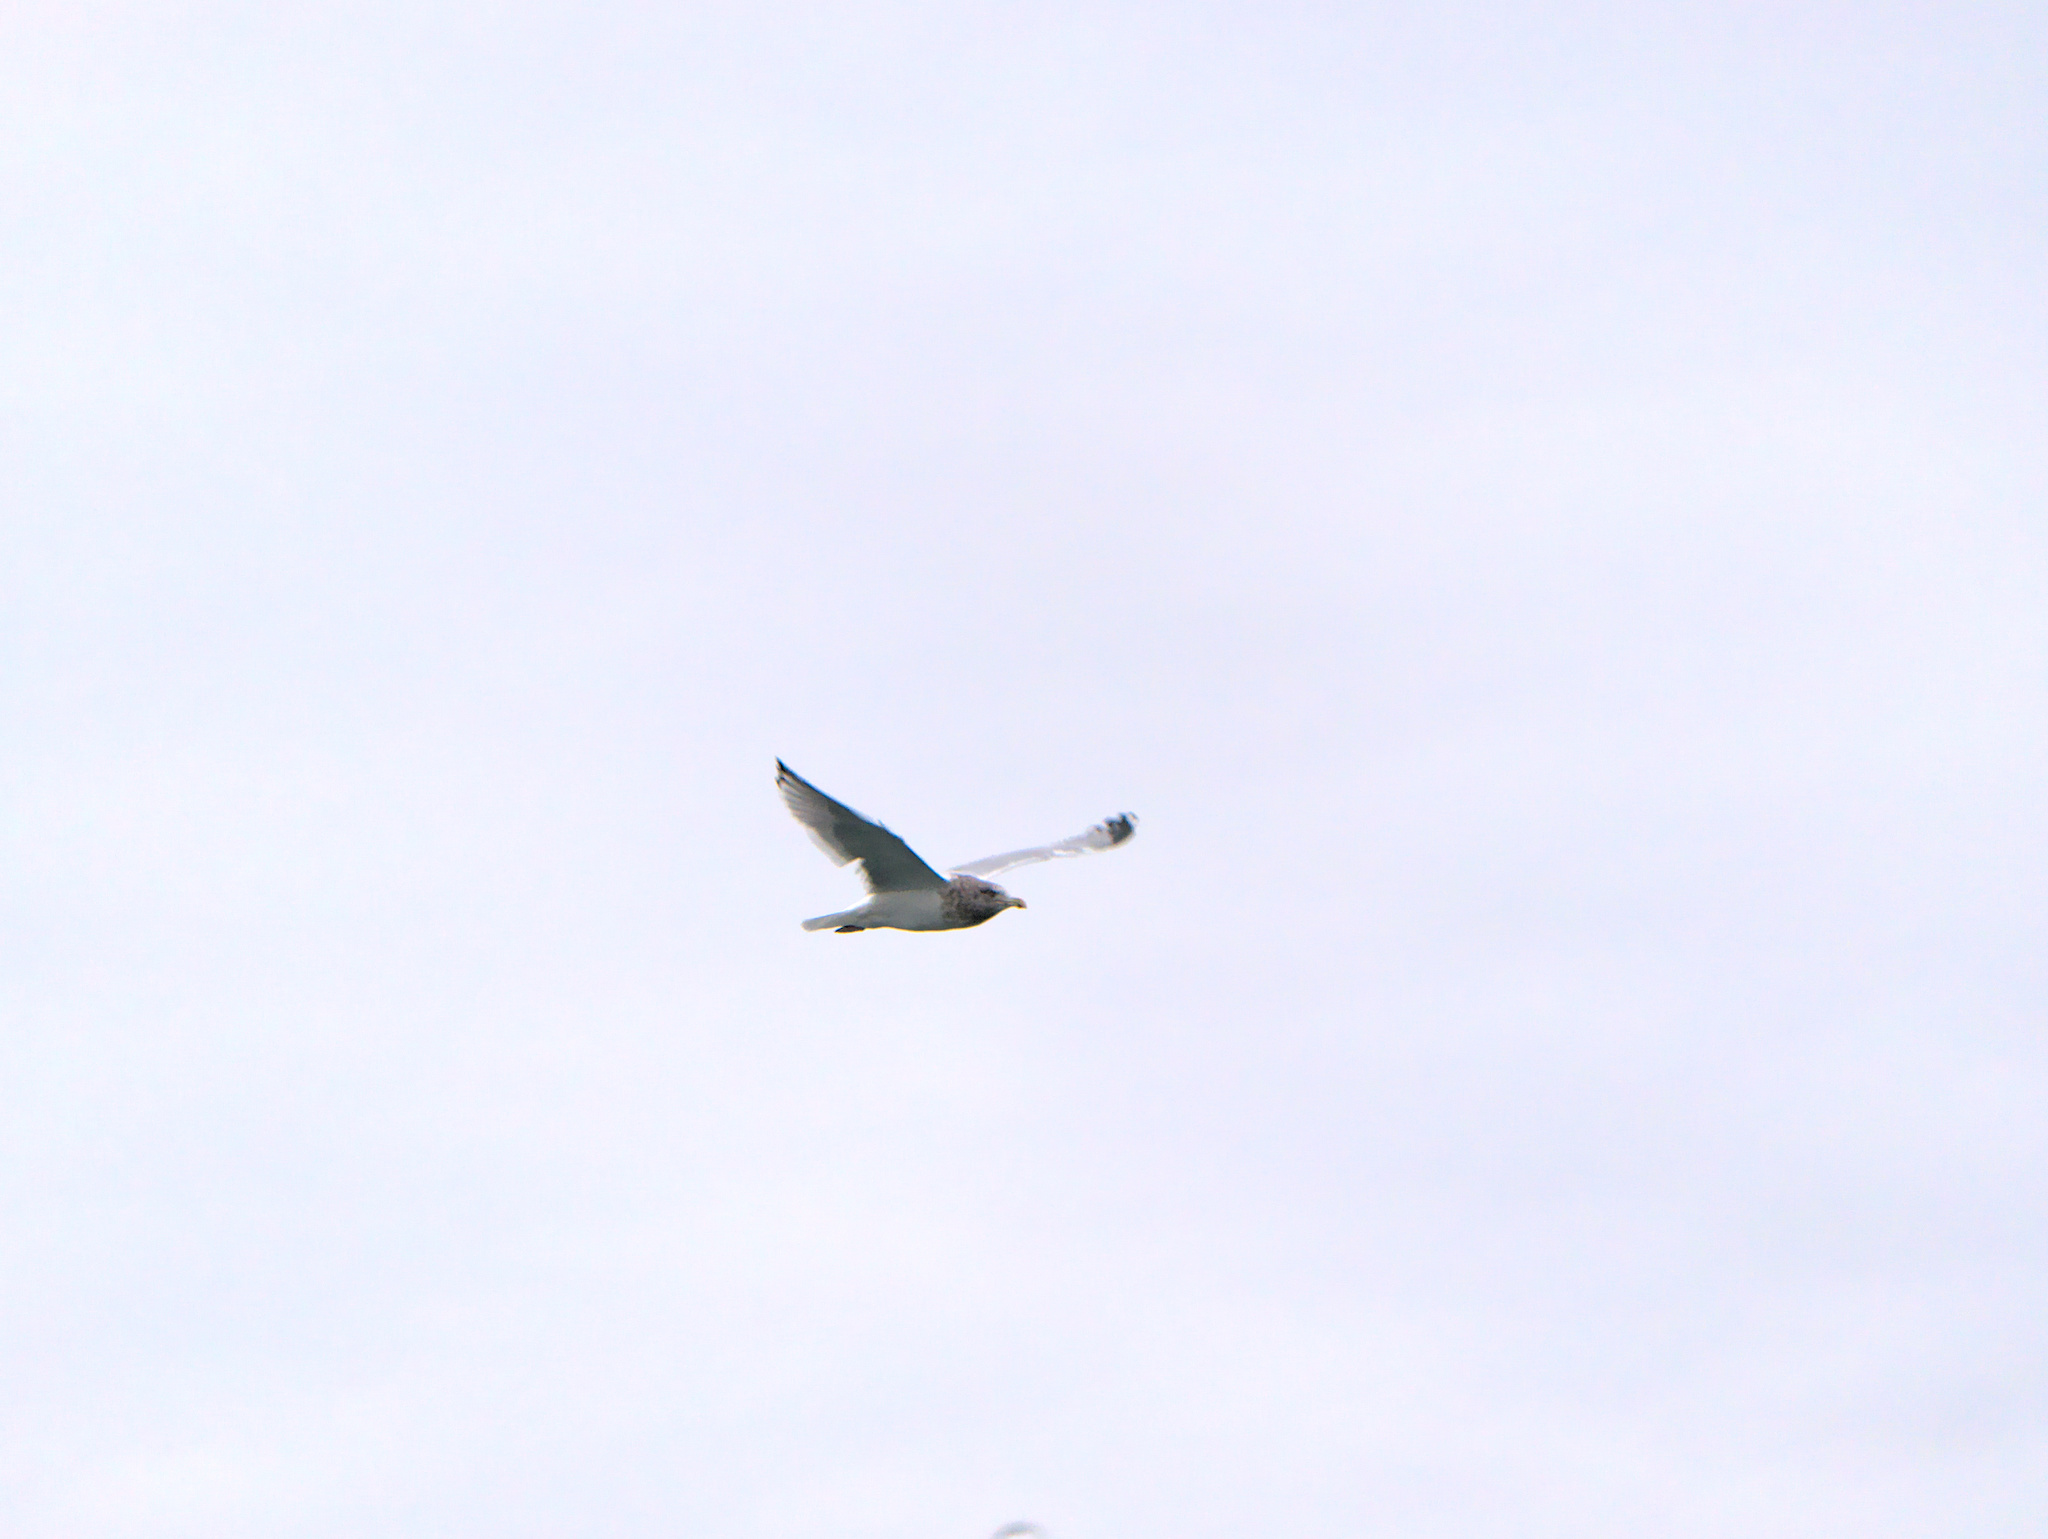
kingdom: Animalia
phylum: Chordata
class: Aves
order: Charadriiformes
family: Laridae
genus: Larus
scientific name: Larus argentatus
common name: Herring gull
